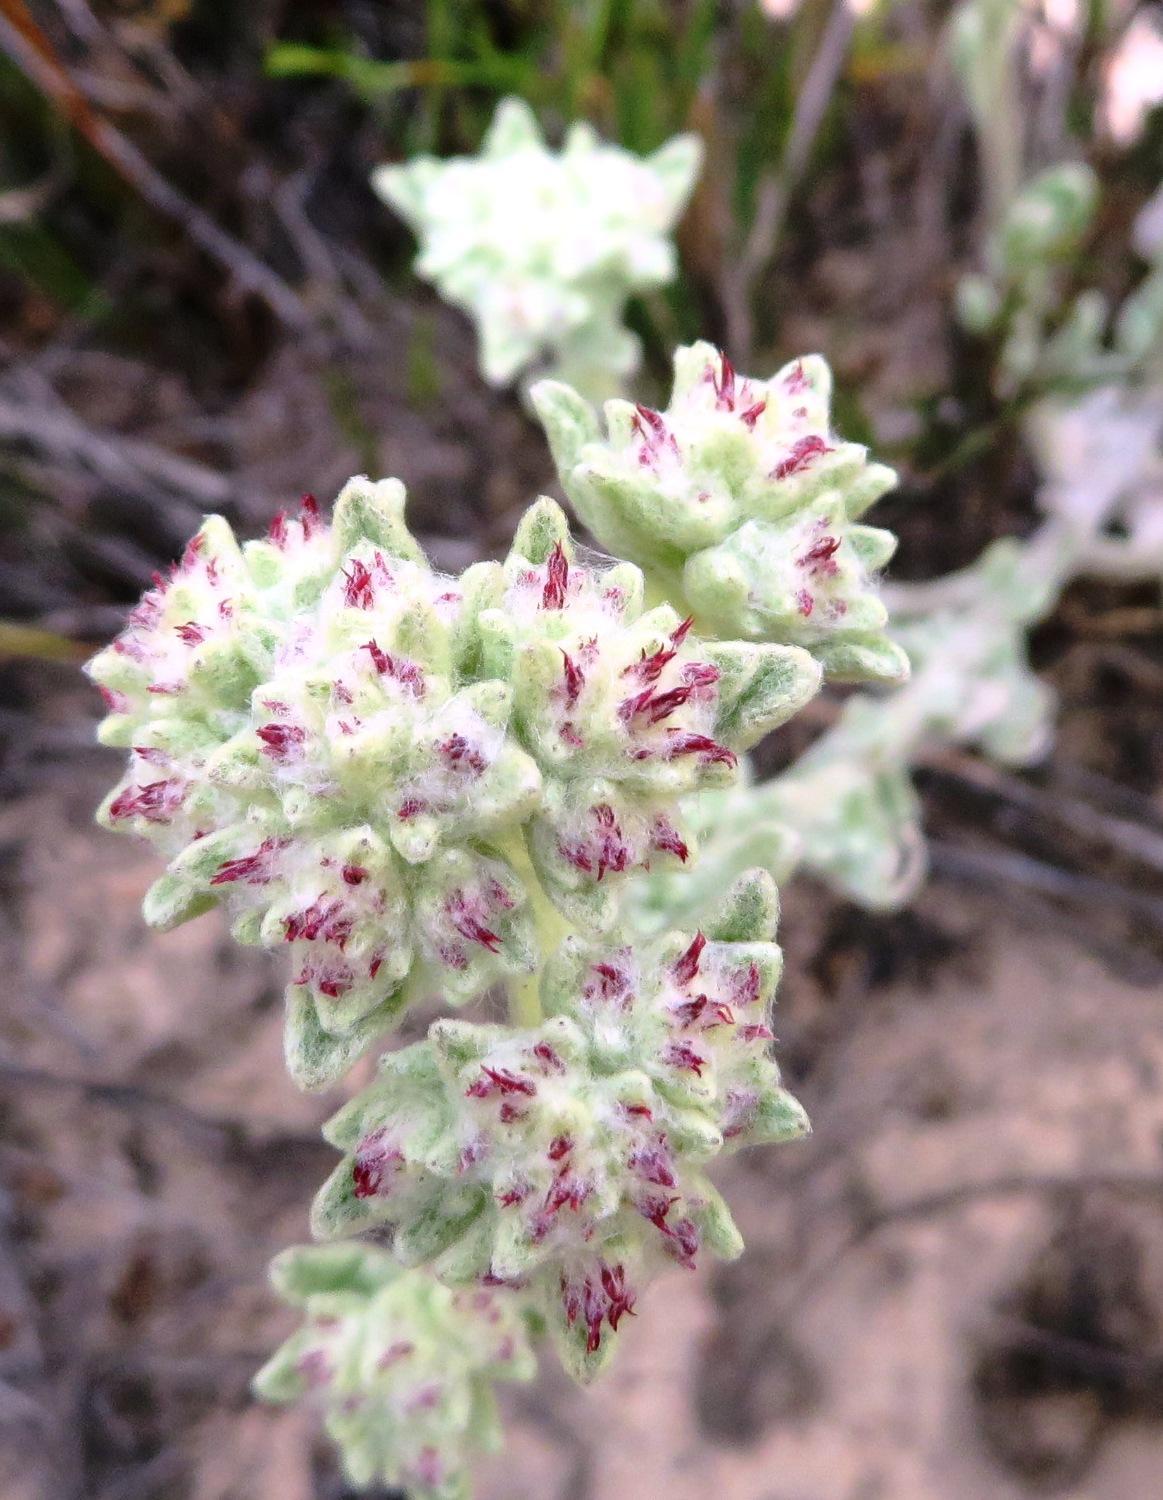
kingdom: Plantae
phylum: Tracheophyta
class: Magnoliopsida
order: Asterales
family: Asteraceae
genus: Helichrysum
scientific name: Helichrysum spiralepis
